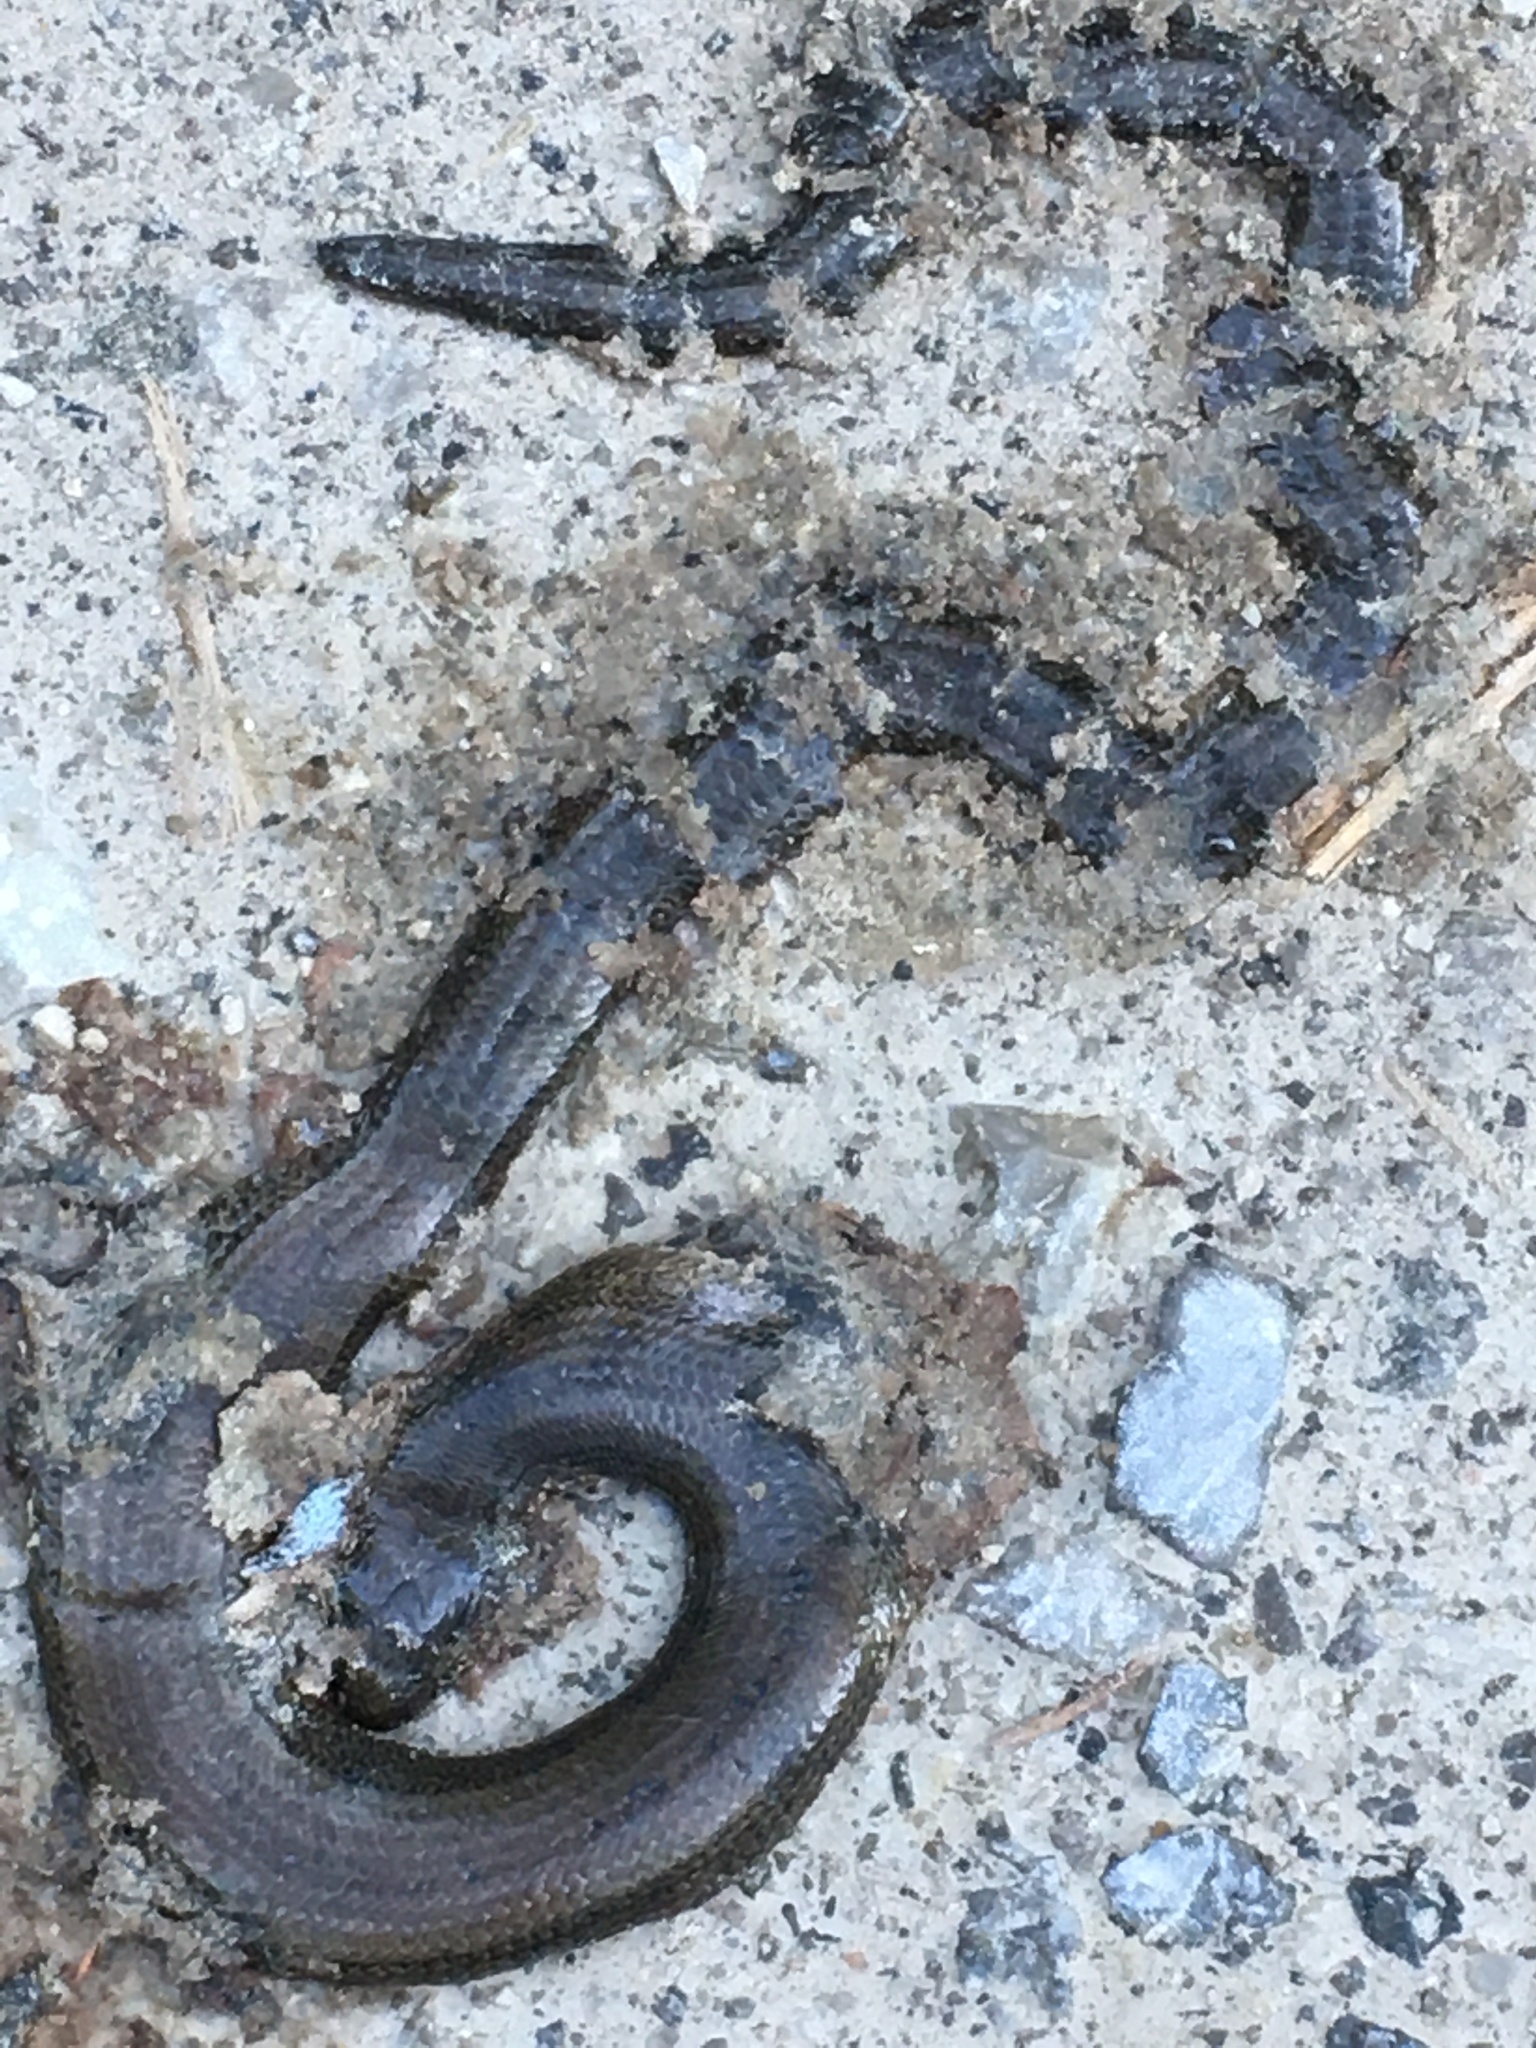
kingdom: Animalia
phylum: Chordata
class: Squamata
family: Anguidae
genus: Anguis
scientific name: Anguis fragilis
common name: Slow worm
